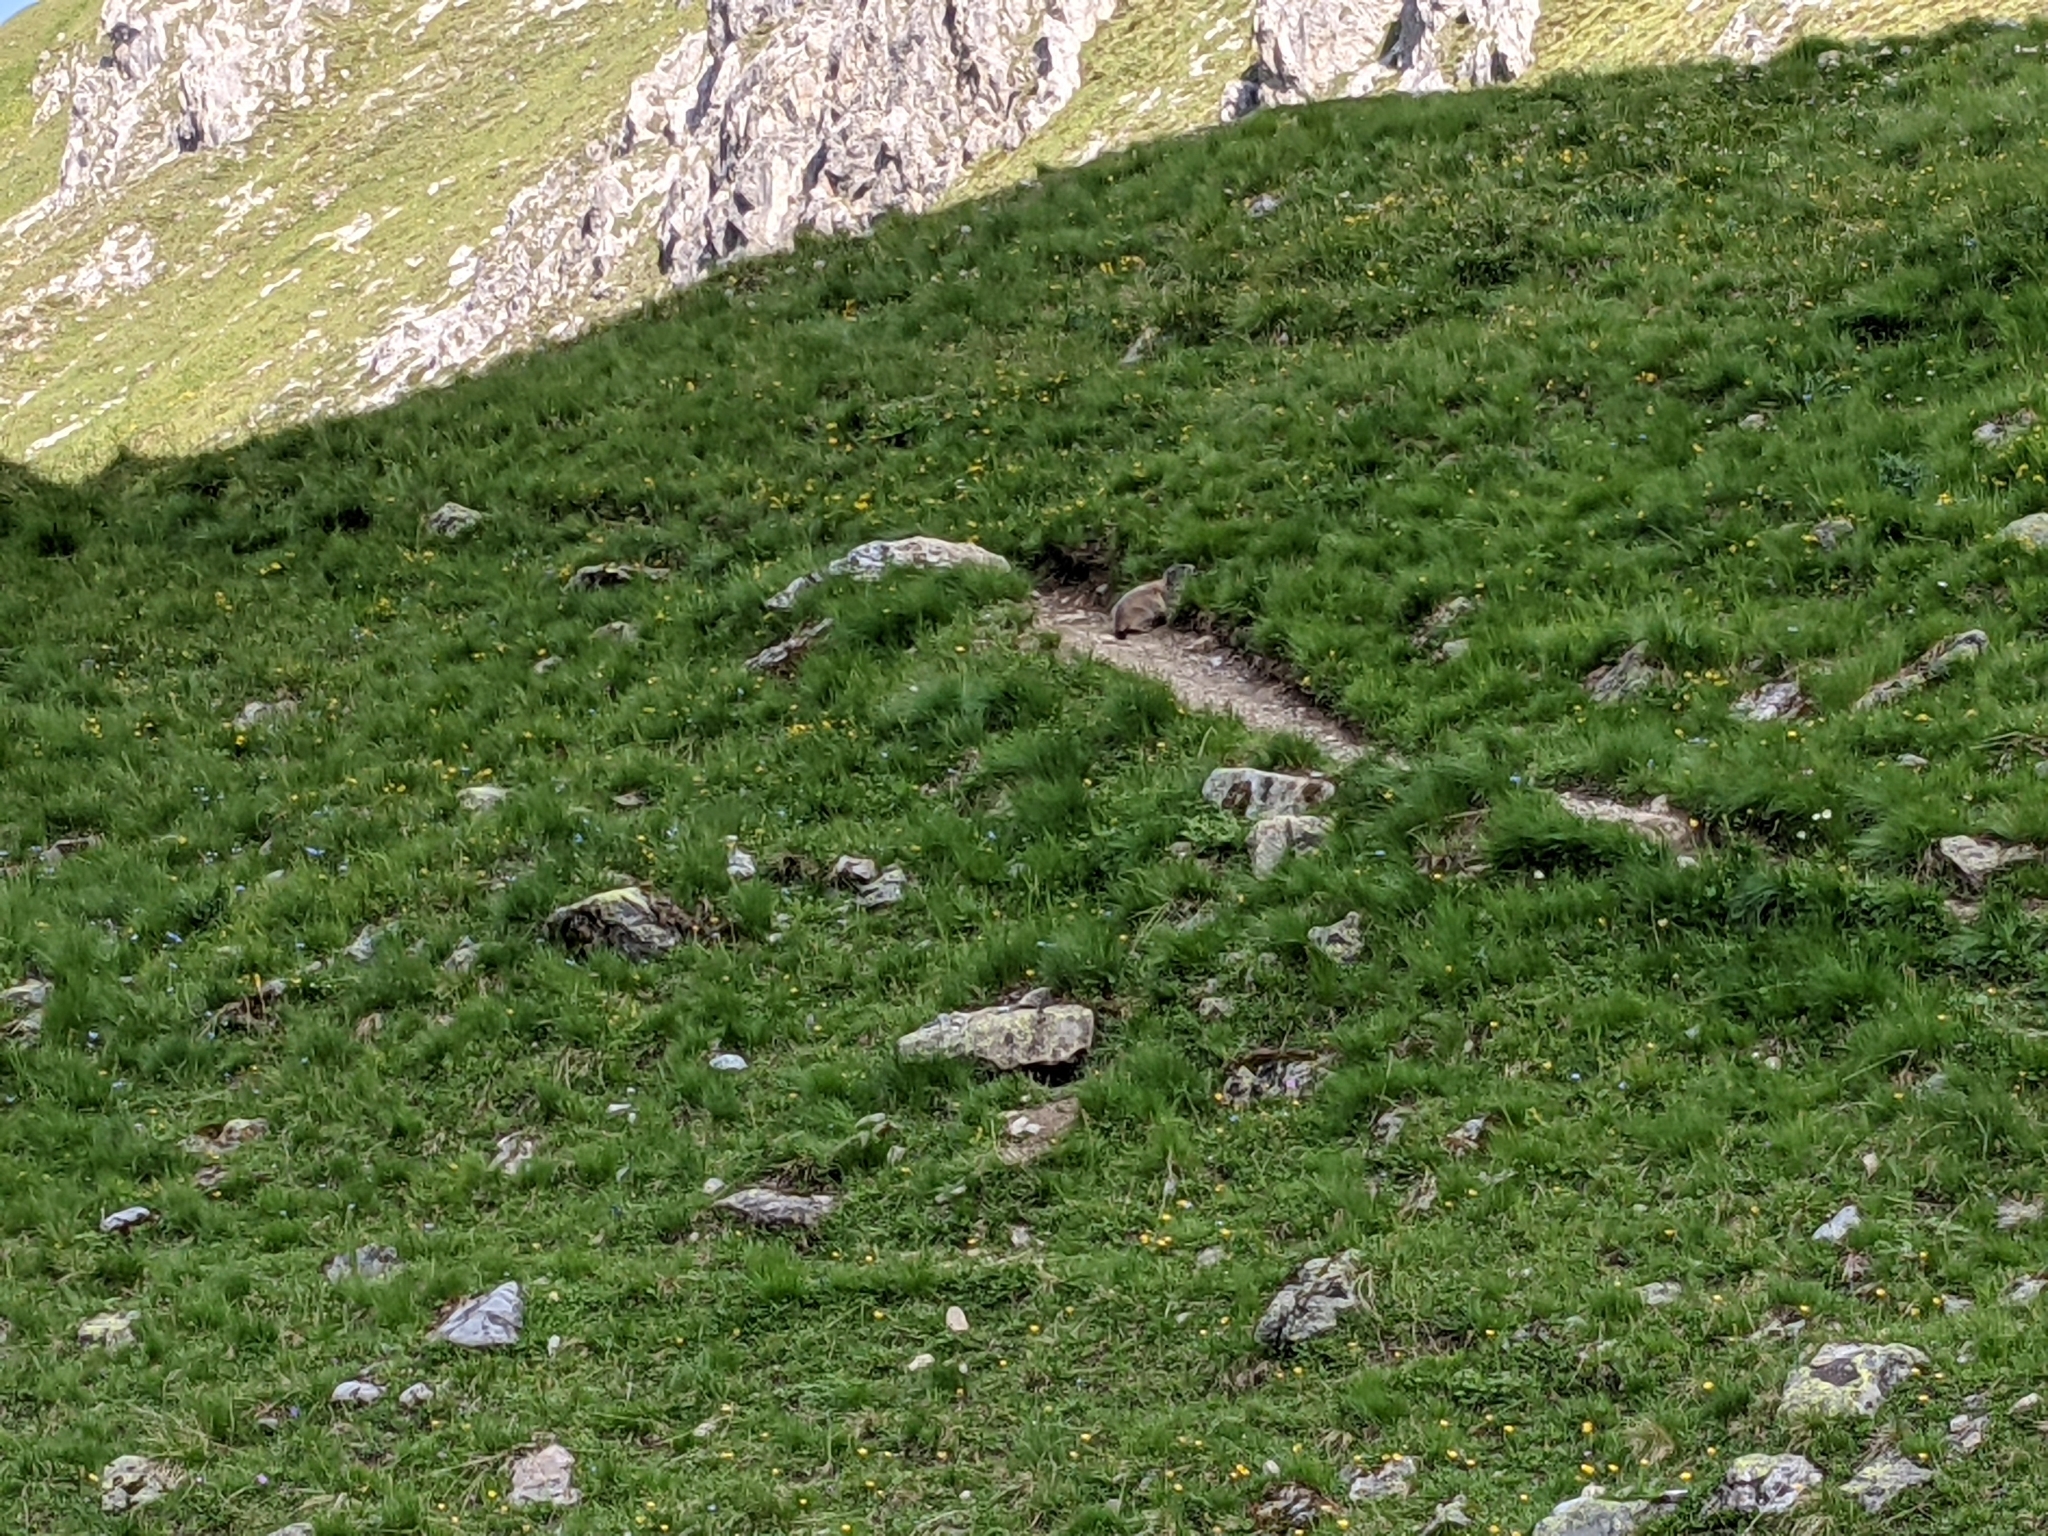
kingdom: Animalia
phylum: Chordata
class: Mammalia
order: Rodentia
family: Sciuridae
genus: Marmota
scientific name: Marmota marmota
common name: Alpine marmot
